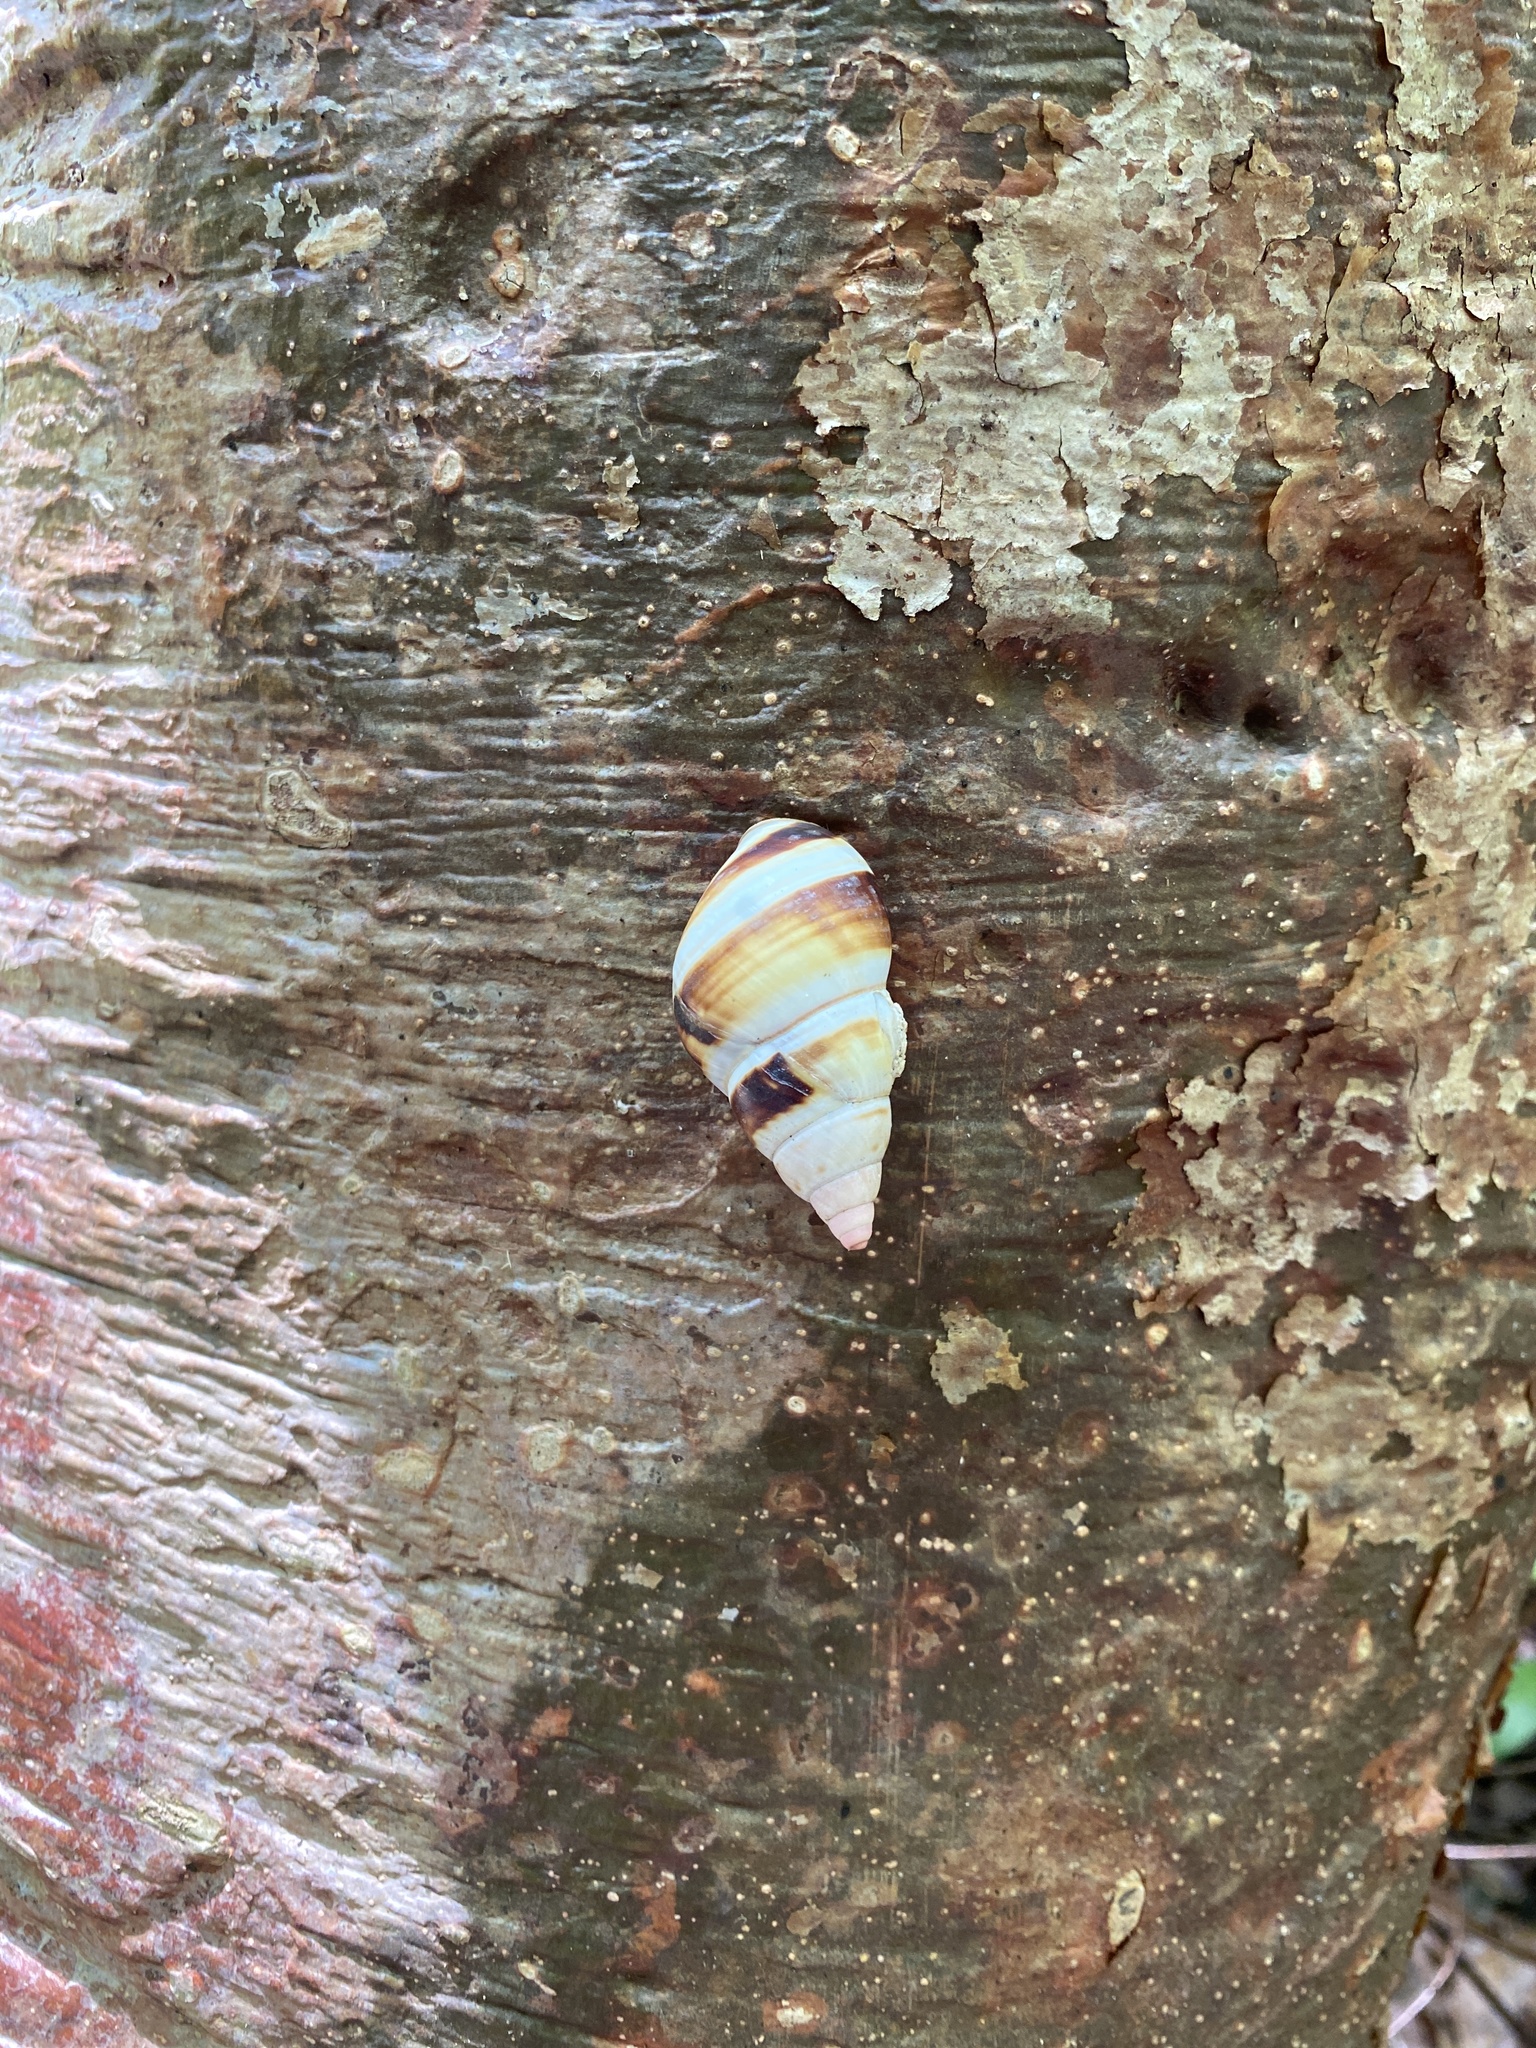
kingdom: Animalia
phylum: Mollusca
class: Gastropoda
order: Stylommatophora
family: Orthalicidae
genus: Liguus
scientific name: Liguus fasciatus
